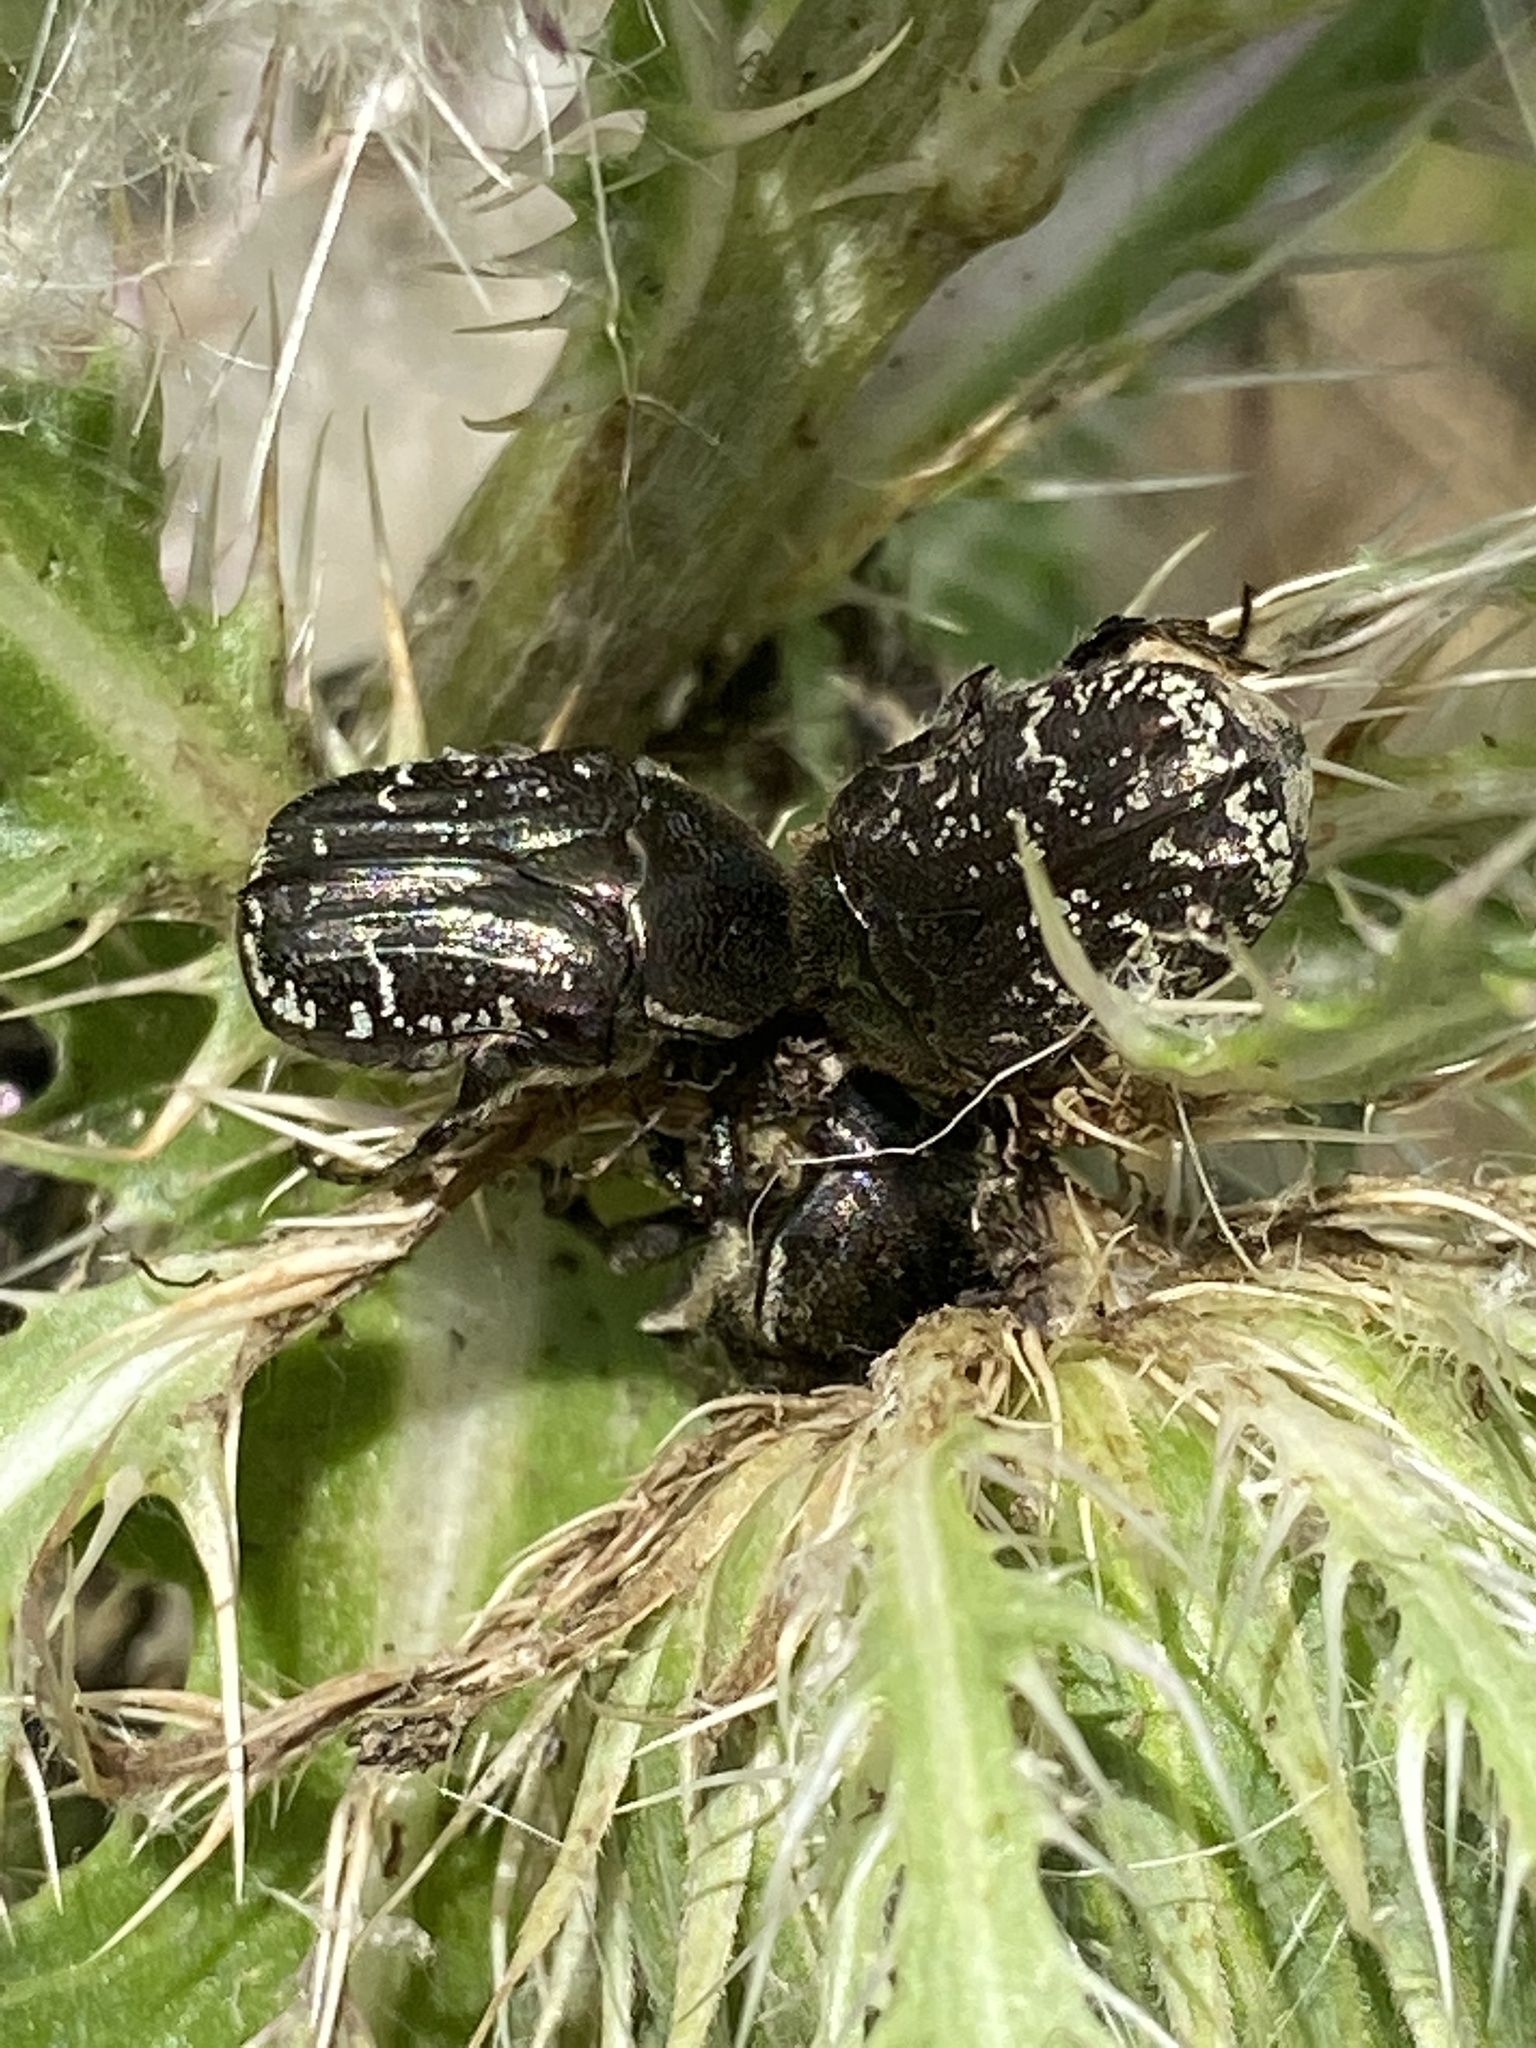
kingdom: Animalia
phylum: Arthropoda
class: Insecta
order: Coleoptera
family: Scarabaeidae
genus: Euphoria
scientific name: Euphoria sepulcralis
